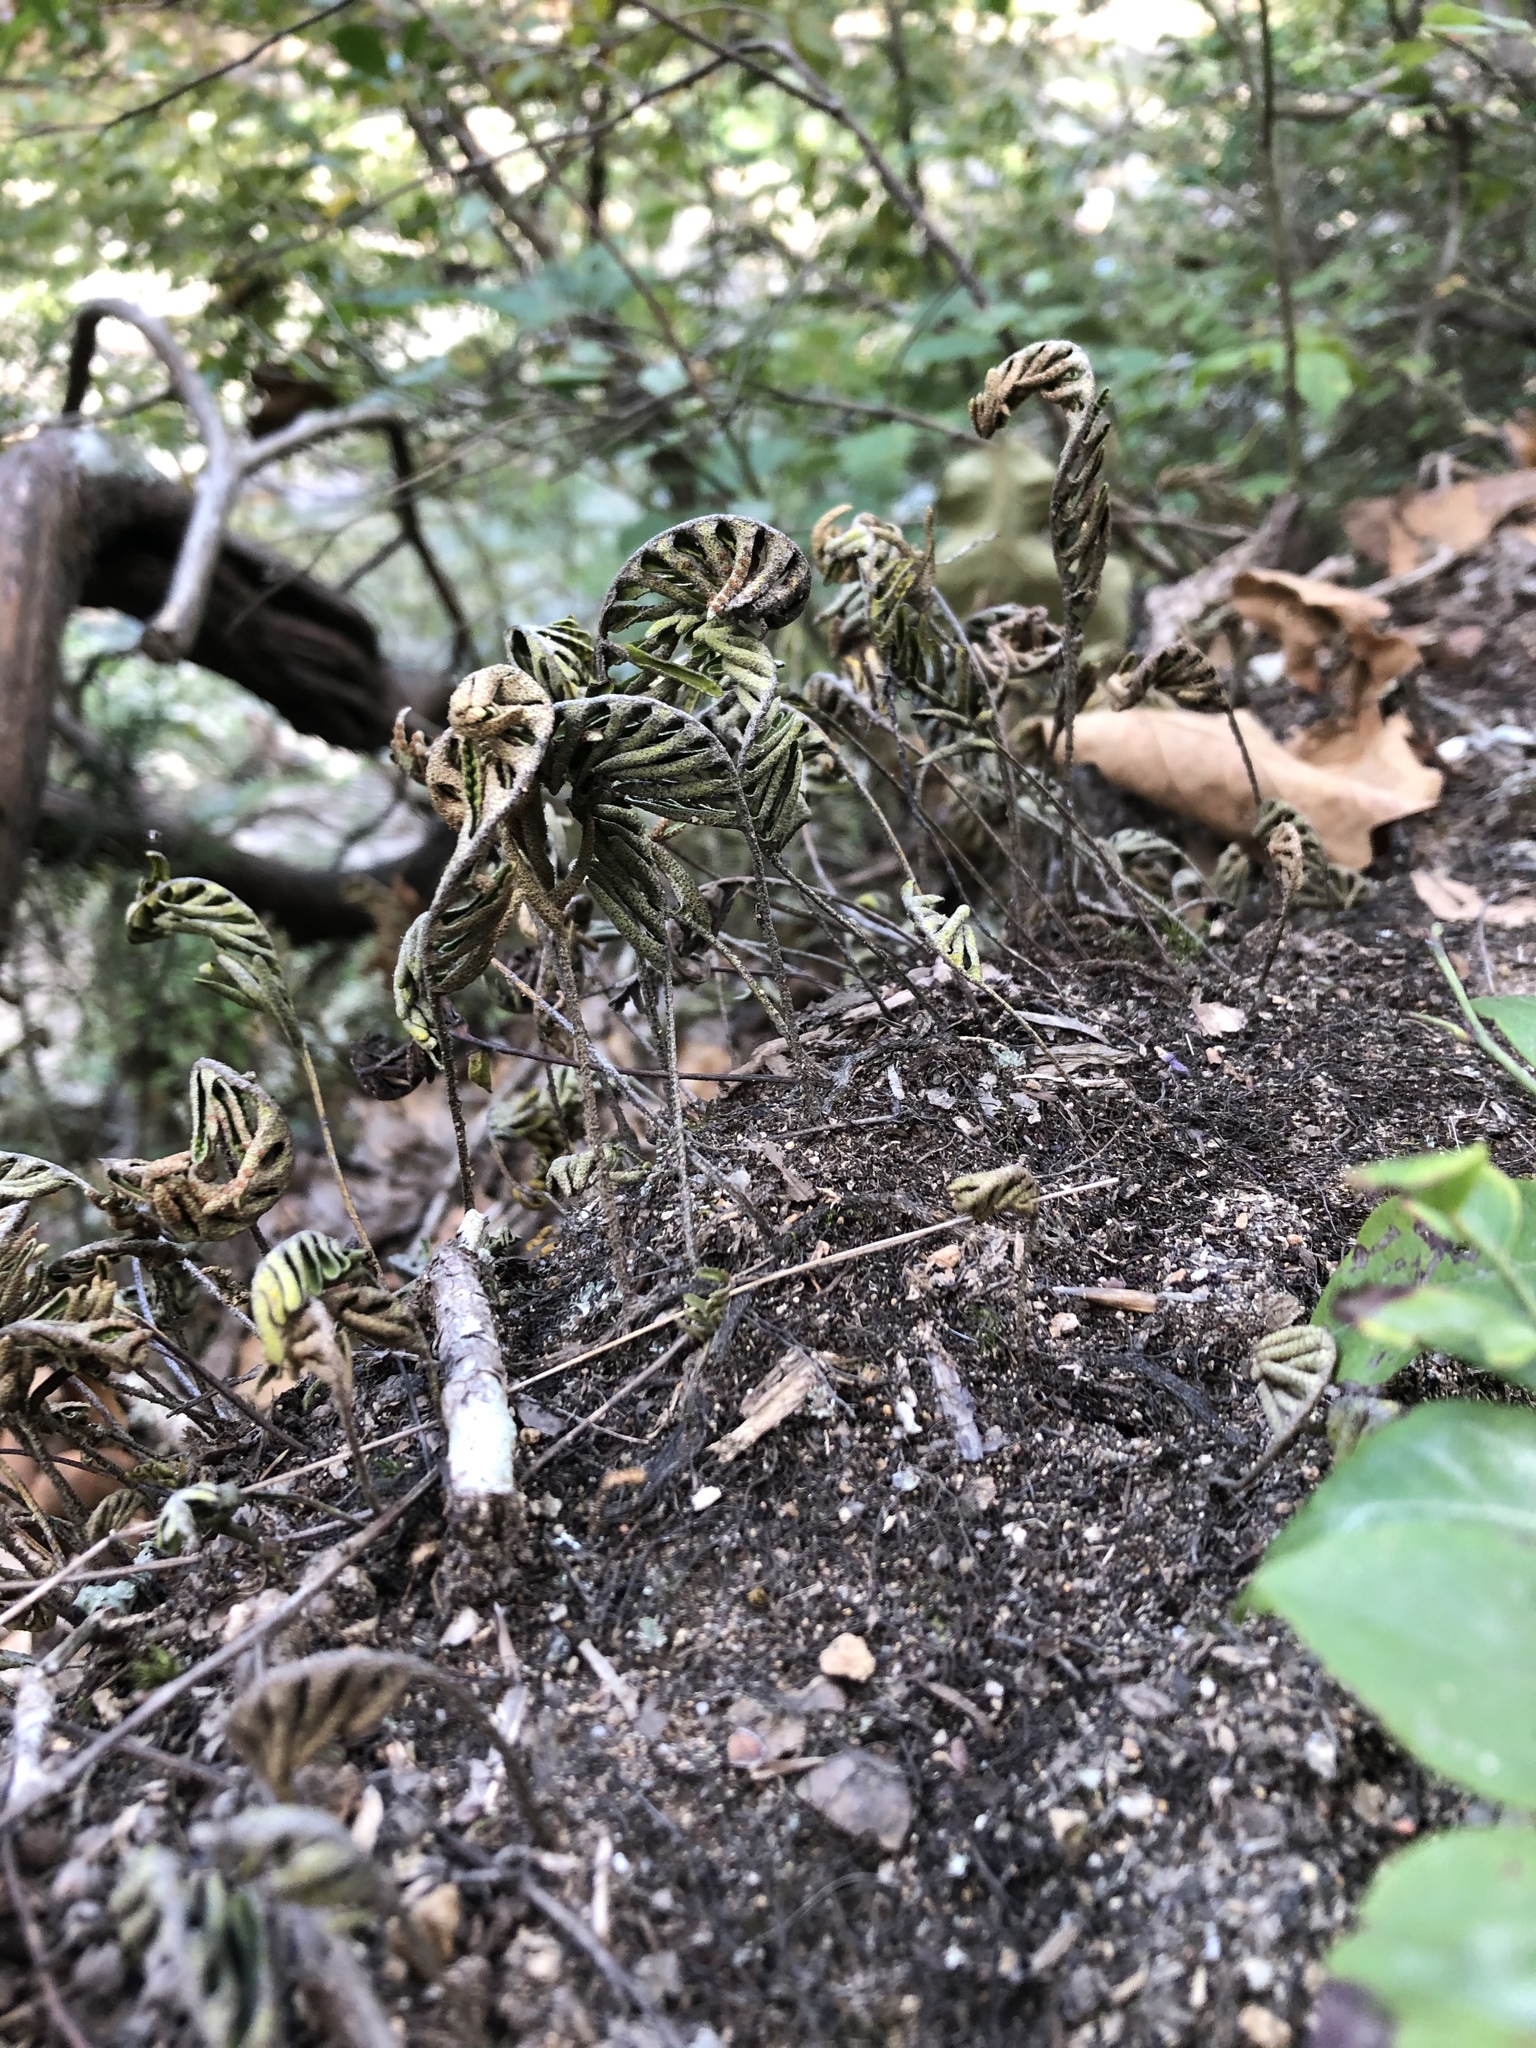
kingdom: Plantae
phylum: Tracheophyta
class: Polypodiopsida
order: Polypodiales
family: Polypodiaceae
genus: Pleopeltis
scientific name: Pleopeltis michauxiana
